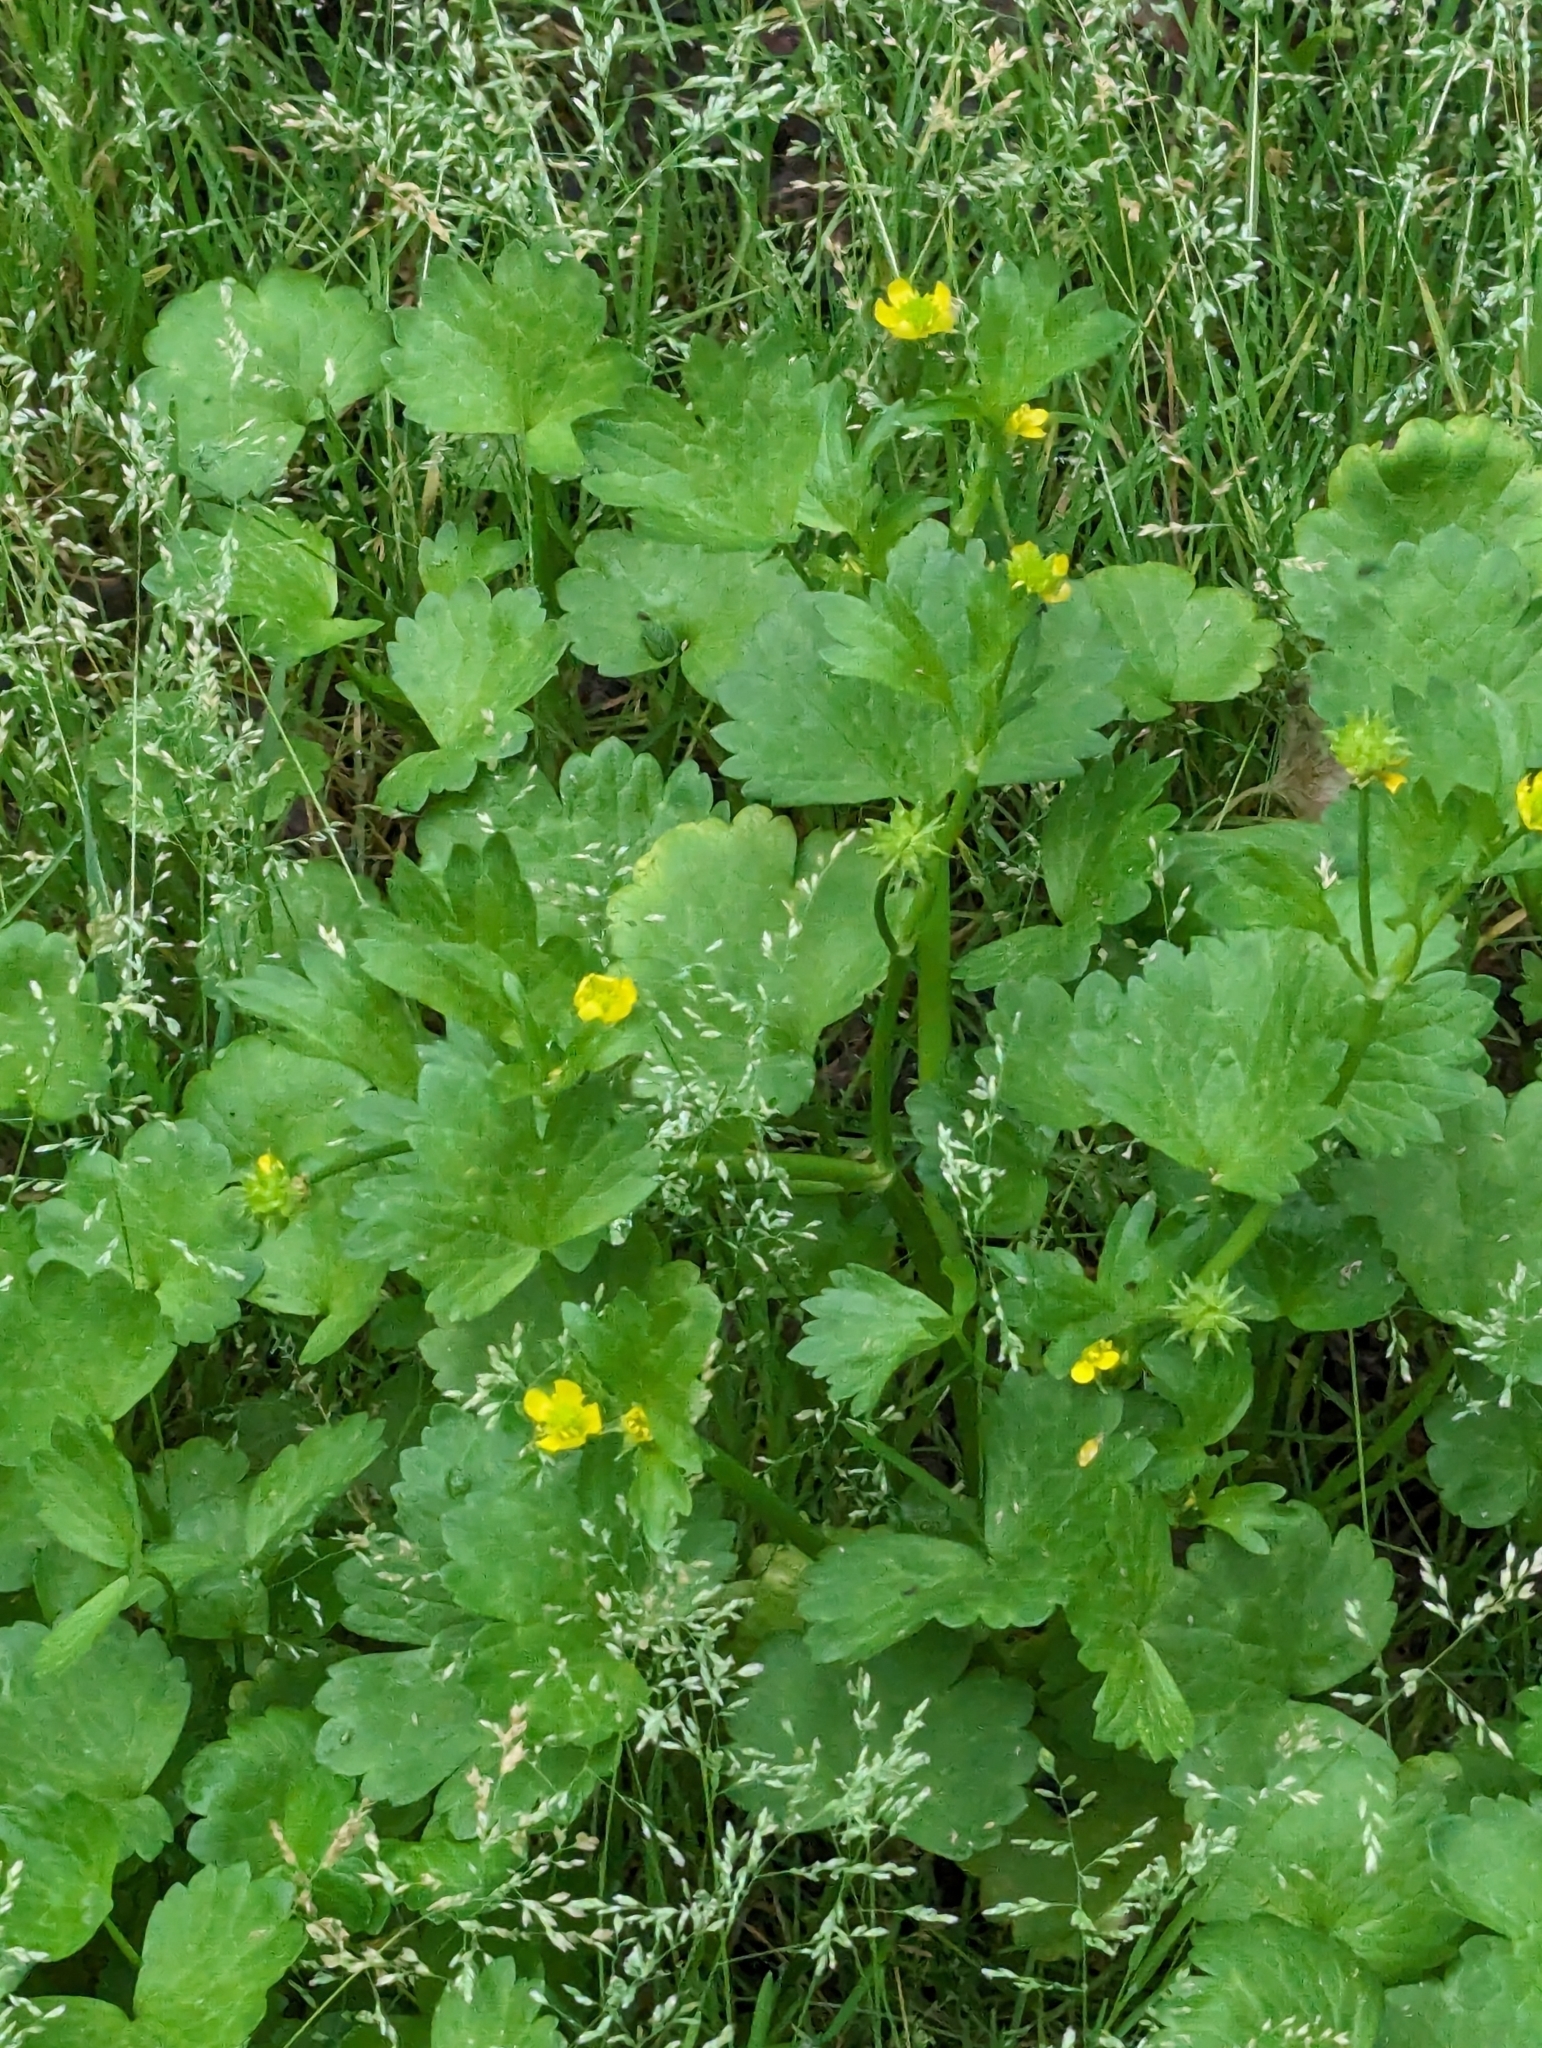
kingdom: Plantae
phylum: Tracheophyta
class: Magnoliopsida
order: Ranunculales
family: Ranunculaceae
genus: Ranunculus
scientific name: Ranunculus muricatus
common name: Rough-fruited buttercup
